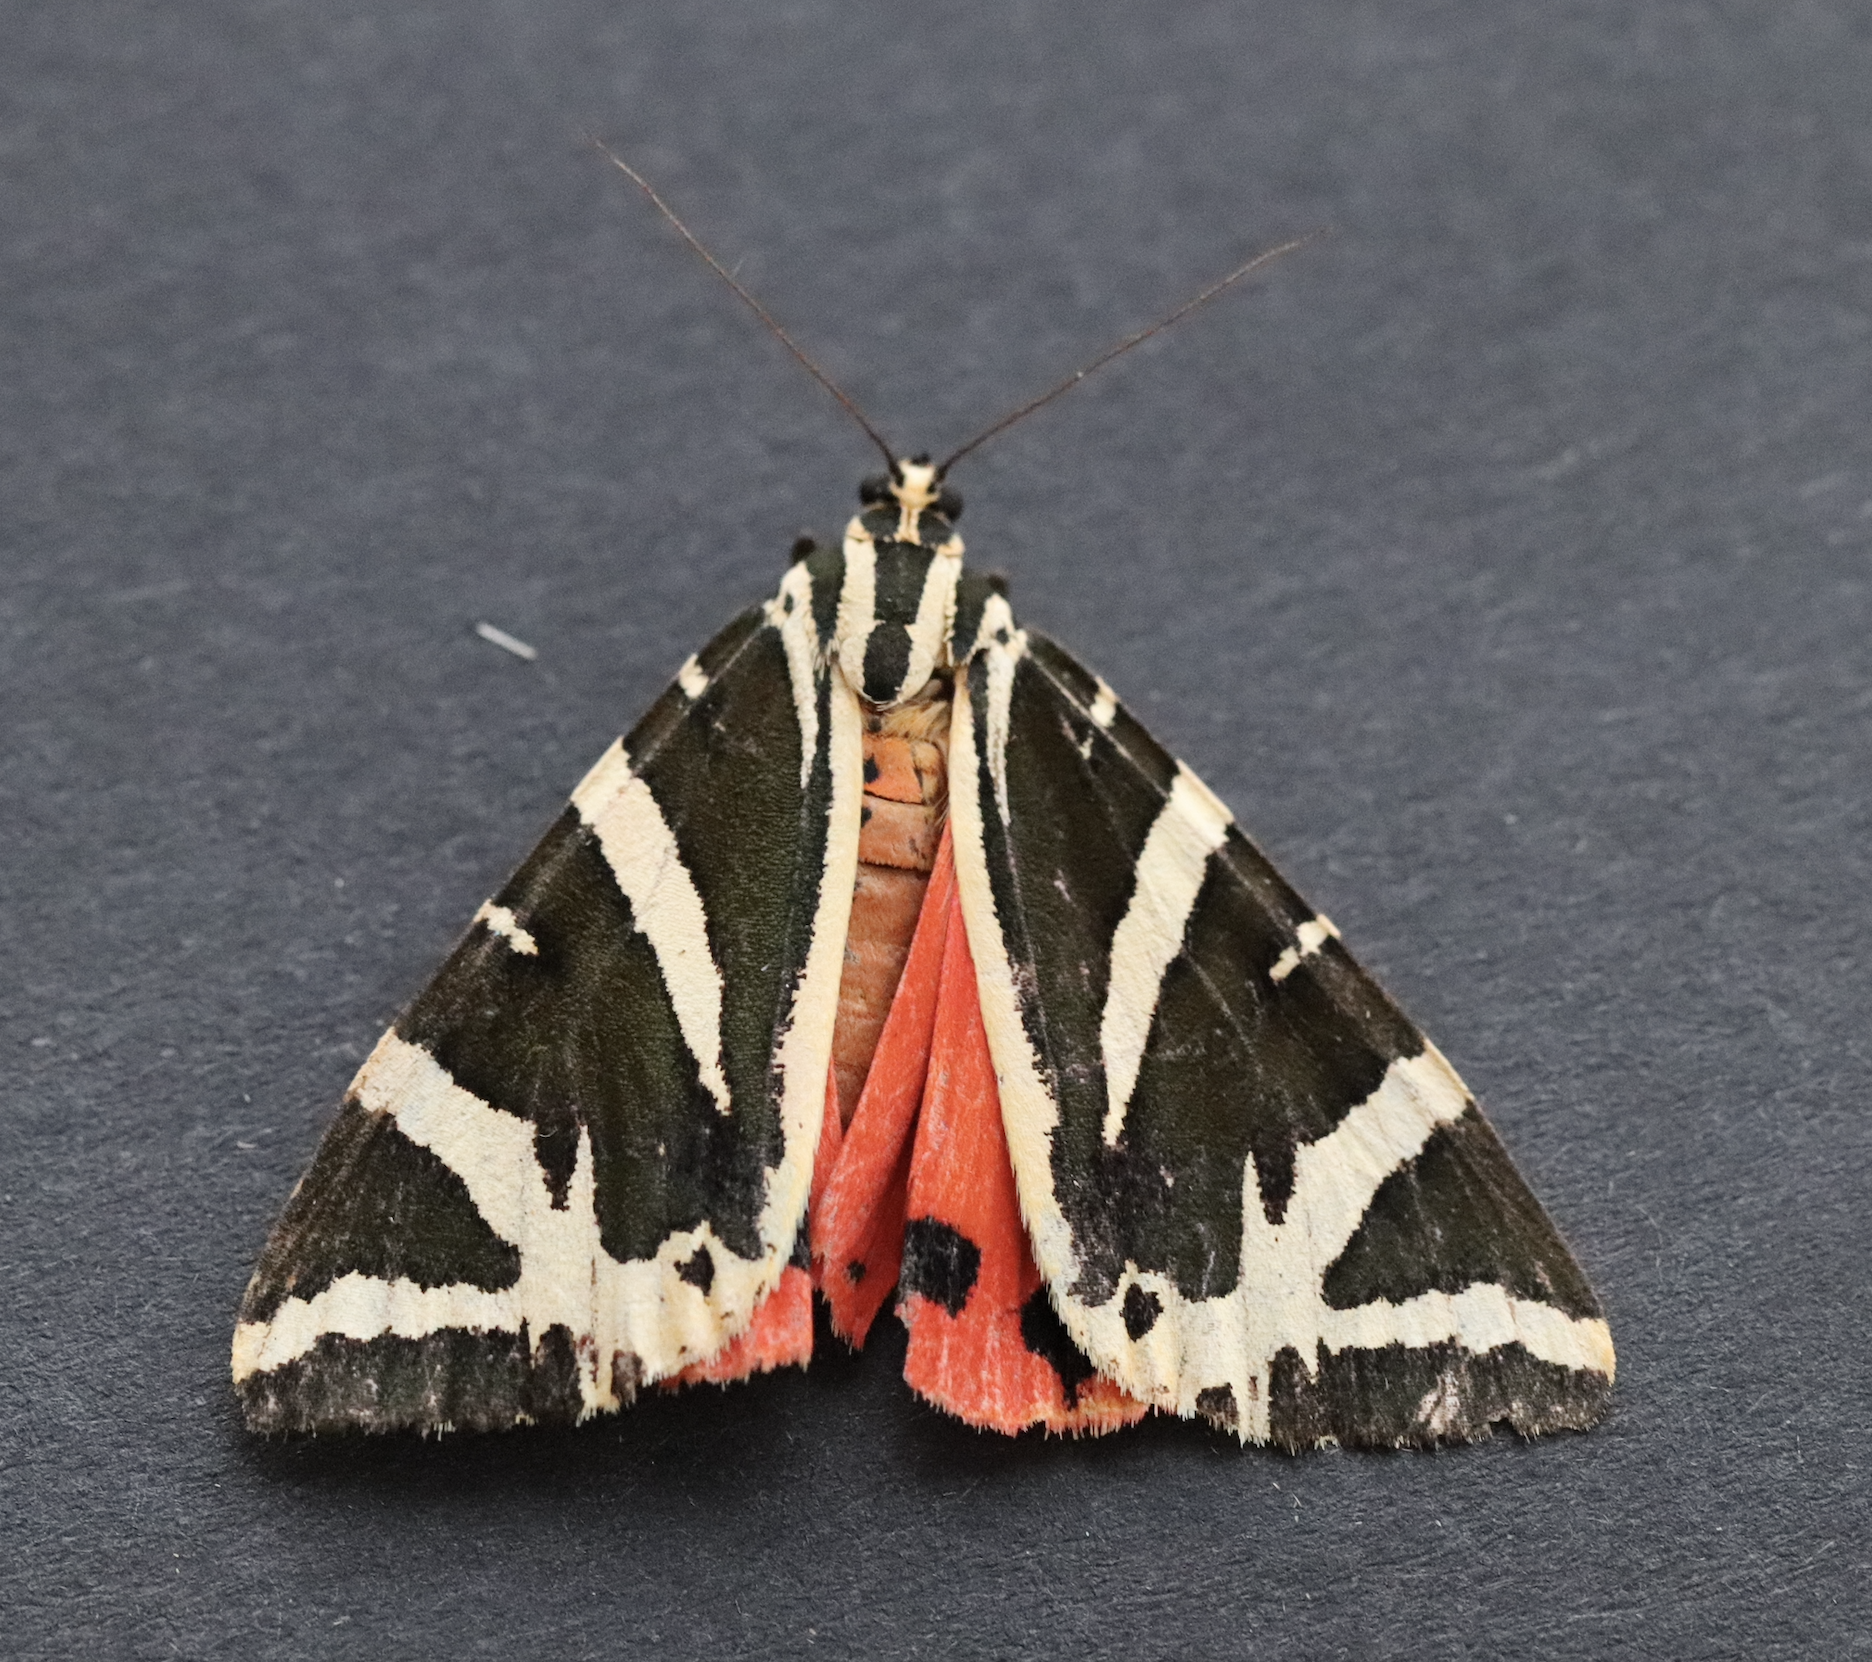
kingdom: Animalia
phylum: Arthropoda
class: Insecta
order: Lepidoptera
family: Erebidae
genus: Euplagia
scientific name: Euplagia quadripunctaria
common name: Jersey tiger
